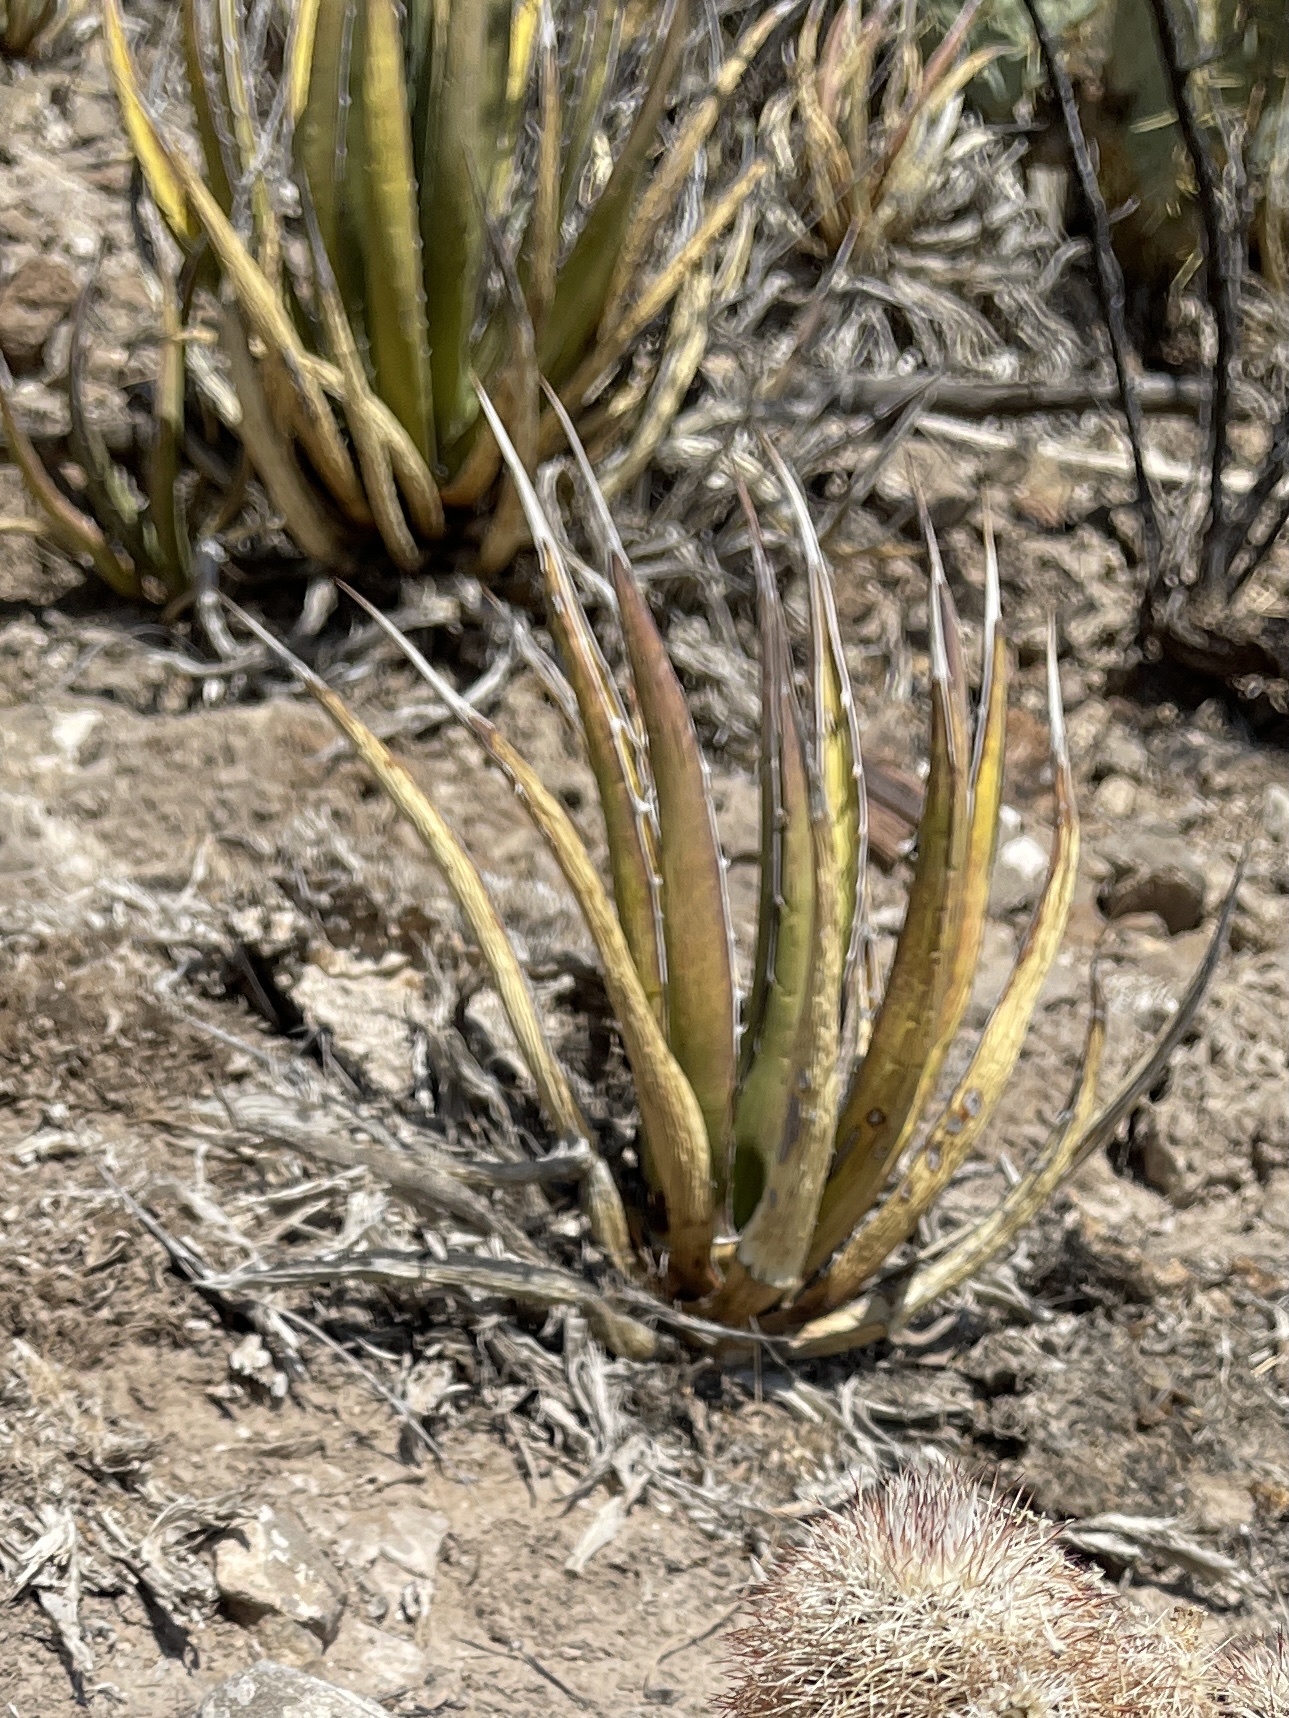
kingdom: Plantae
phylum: Tracheophyta
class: Liliopsida
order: Asparagales
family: Asparagaceae
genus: Agave
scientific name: Agave lechuguilla
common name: Lecheguilla agave
